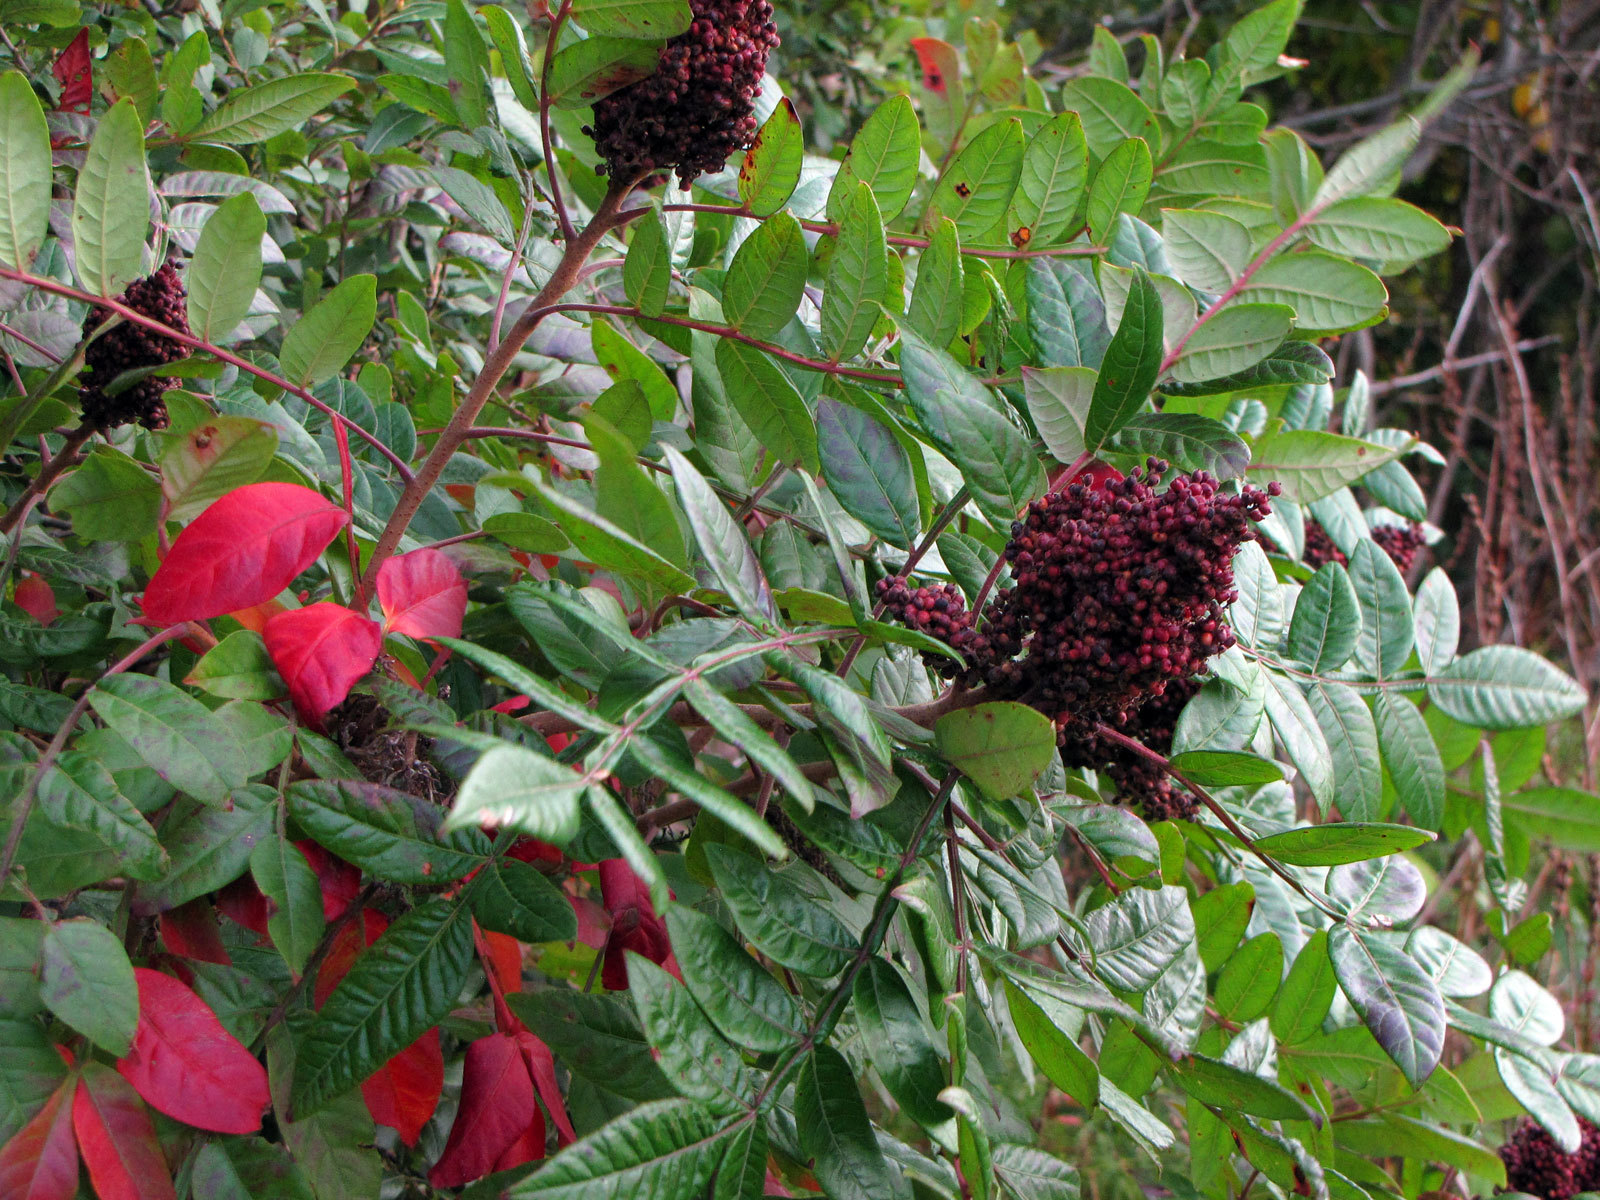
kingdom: Plantae
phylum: Tracheophyta
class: Magnoliopsida
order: Sapindales
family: Anacardiaceae
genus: Rhus
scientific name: Rhus copallina
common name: Shining sumac
